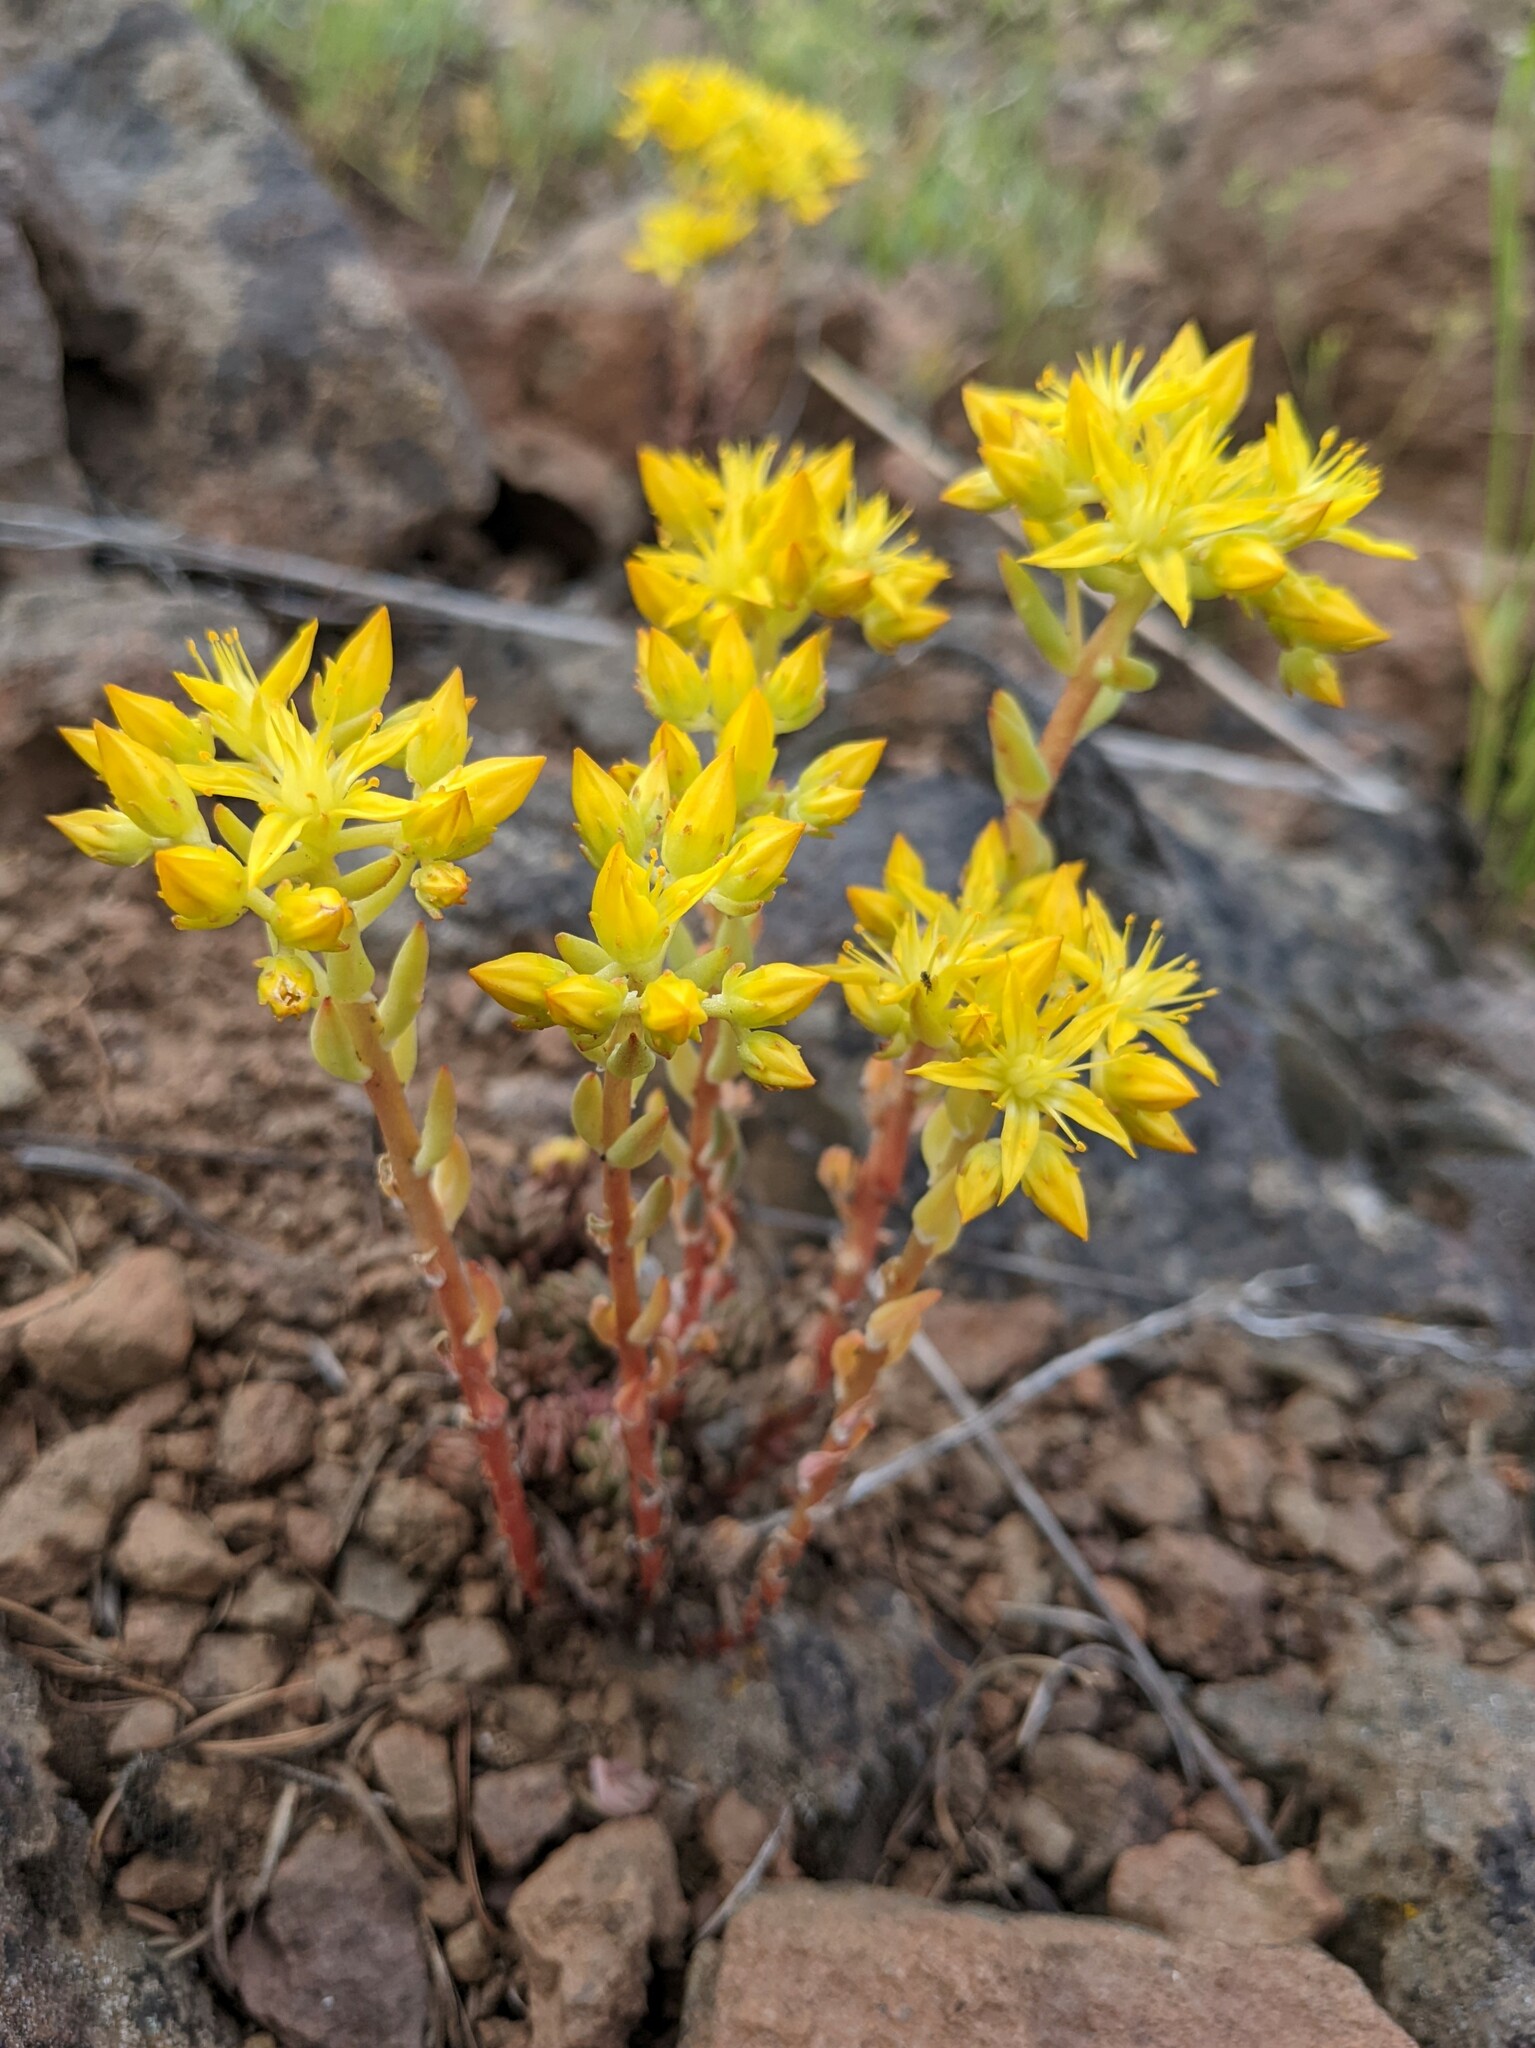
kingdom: Plantae
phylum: Tracheophyta
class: Magnoliopsida
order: Saxifragales
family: Crassulaceae
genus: Sedum
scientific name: Sedum lanceolatum
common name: Common stonecrop
